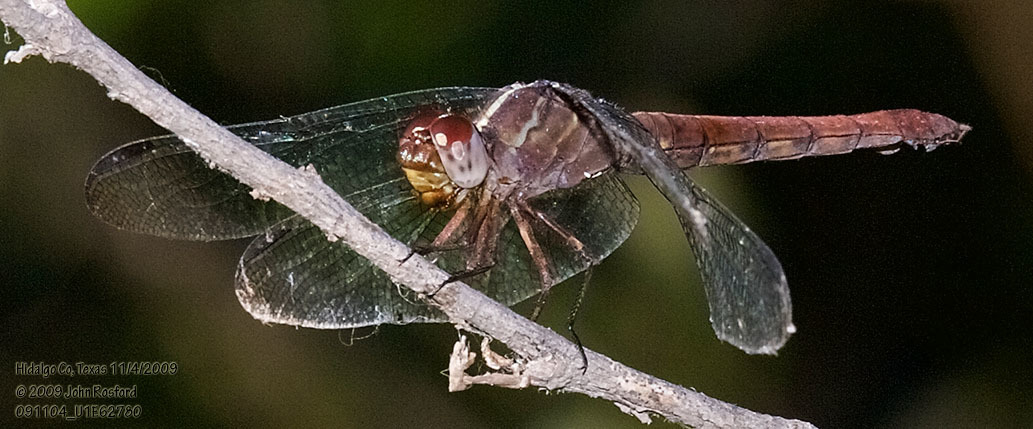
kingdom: Animalia
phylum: Arthropoda
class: Insecta
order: Odonata
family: Libellulidae
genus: Orthemis
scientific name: Orthemis discolor
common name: Carmine skimmer
